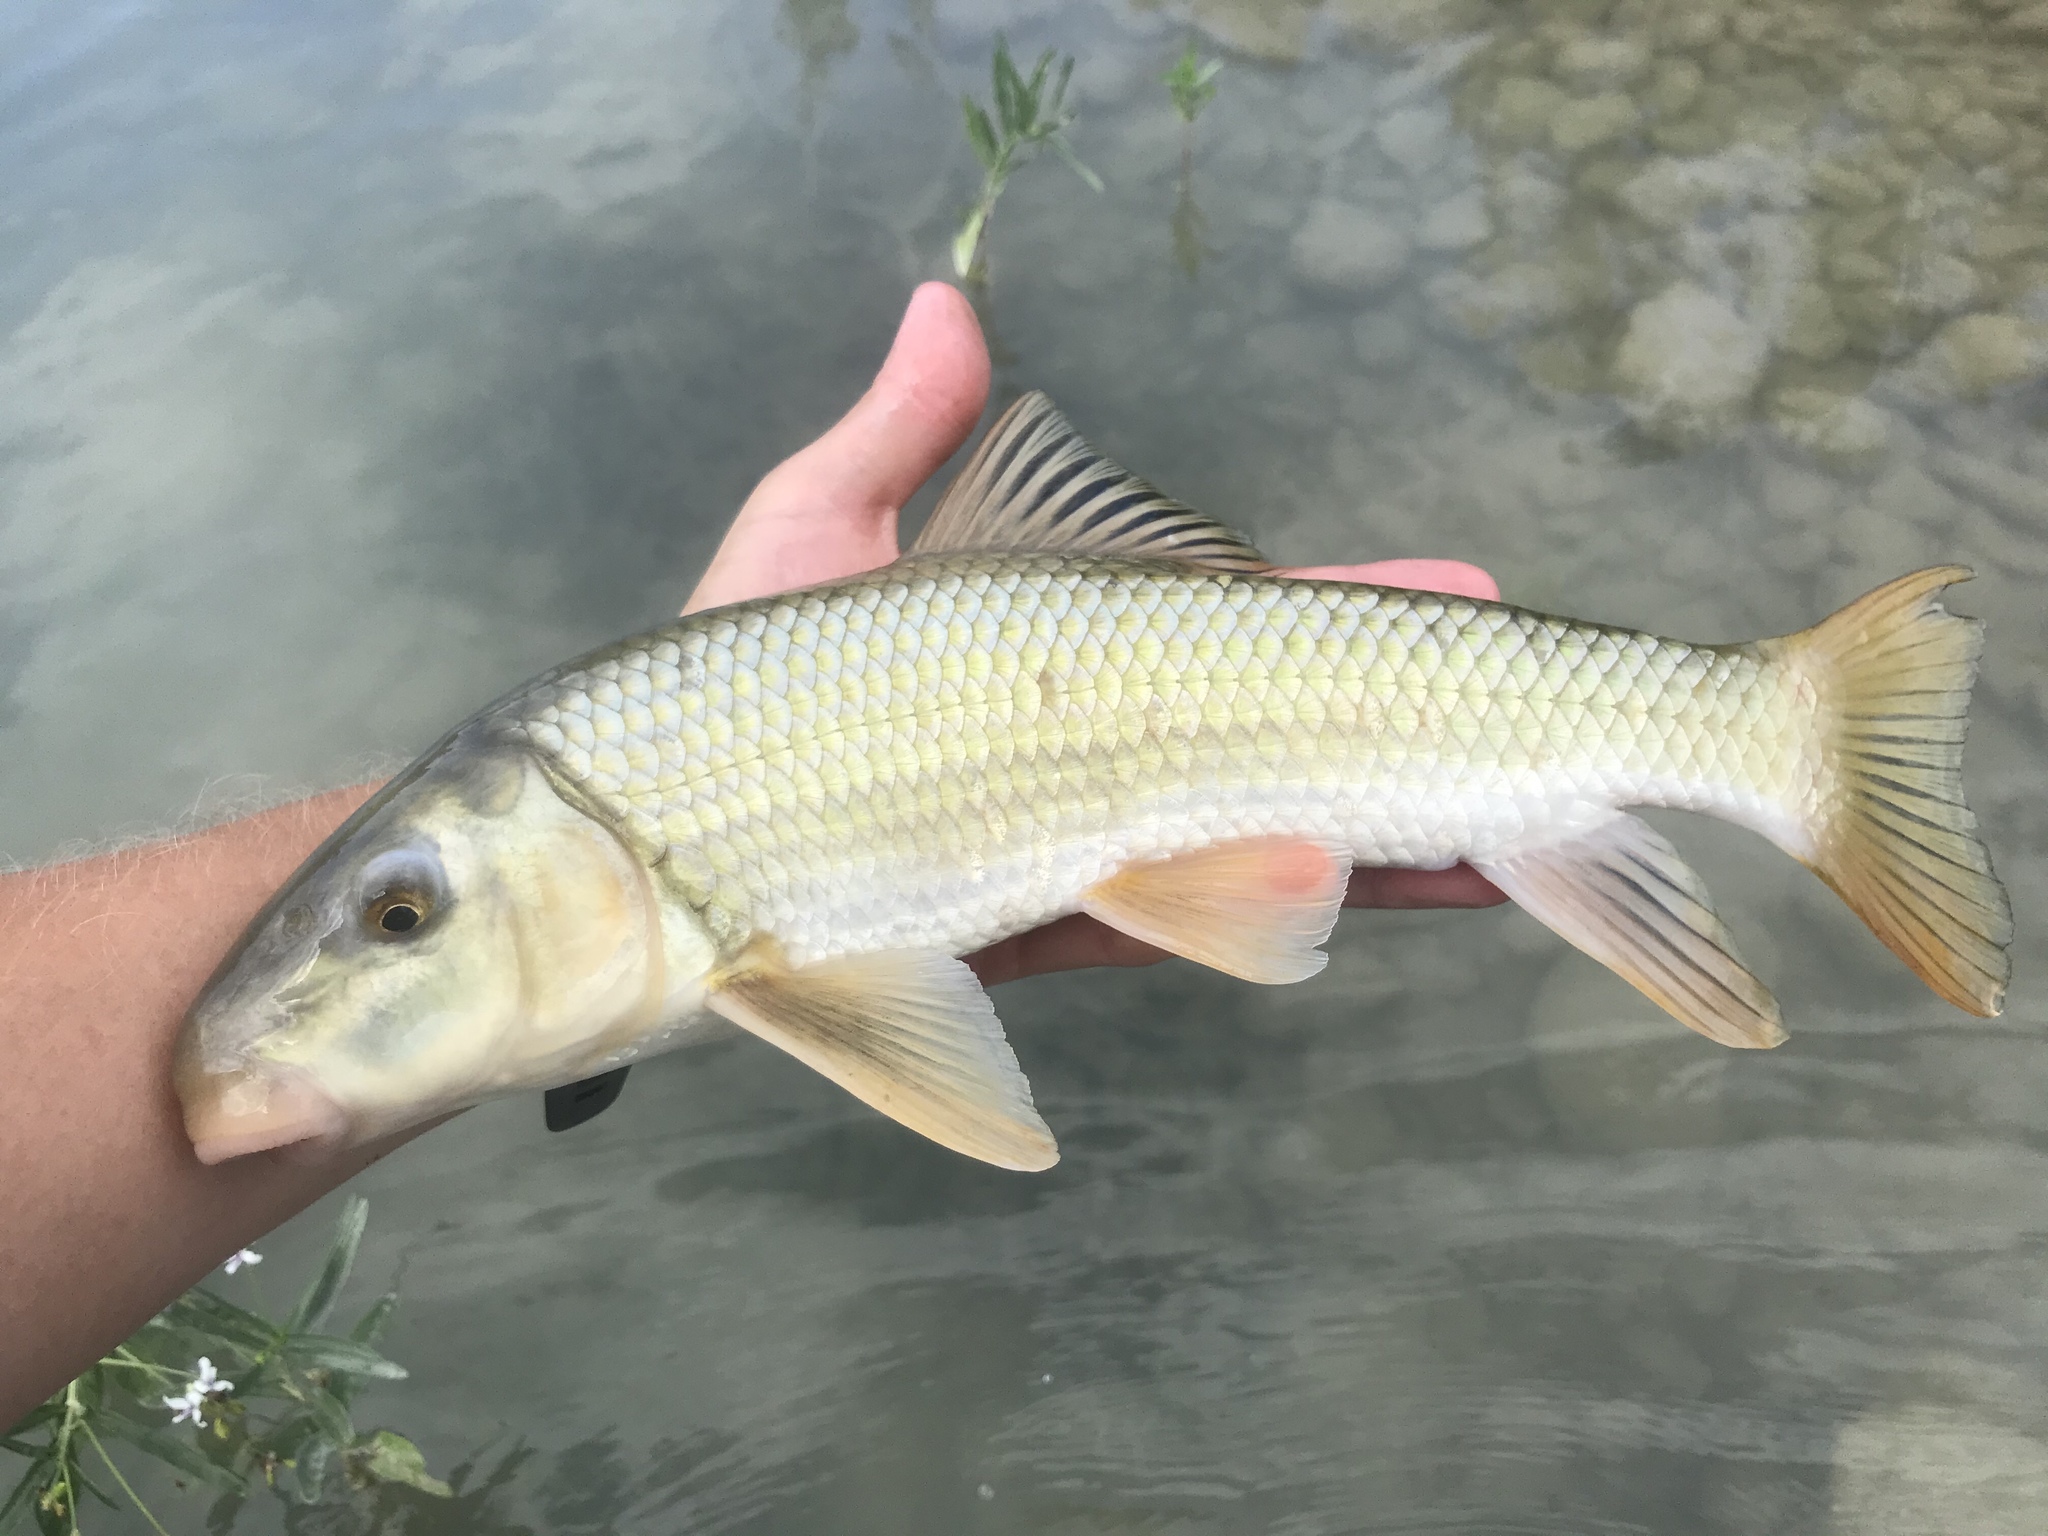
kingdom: Animalia
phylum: Chordata
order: Cypriniformes
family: Catostomidae
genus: Moxostoma
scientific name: Moxostoma congestum
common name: Gray redhorse
